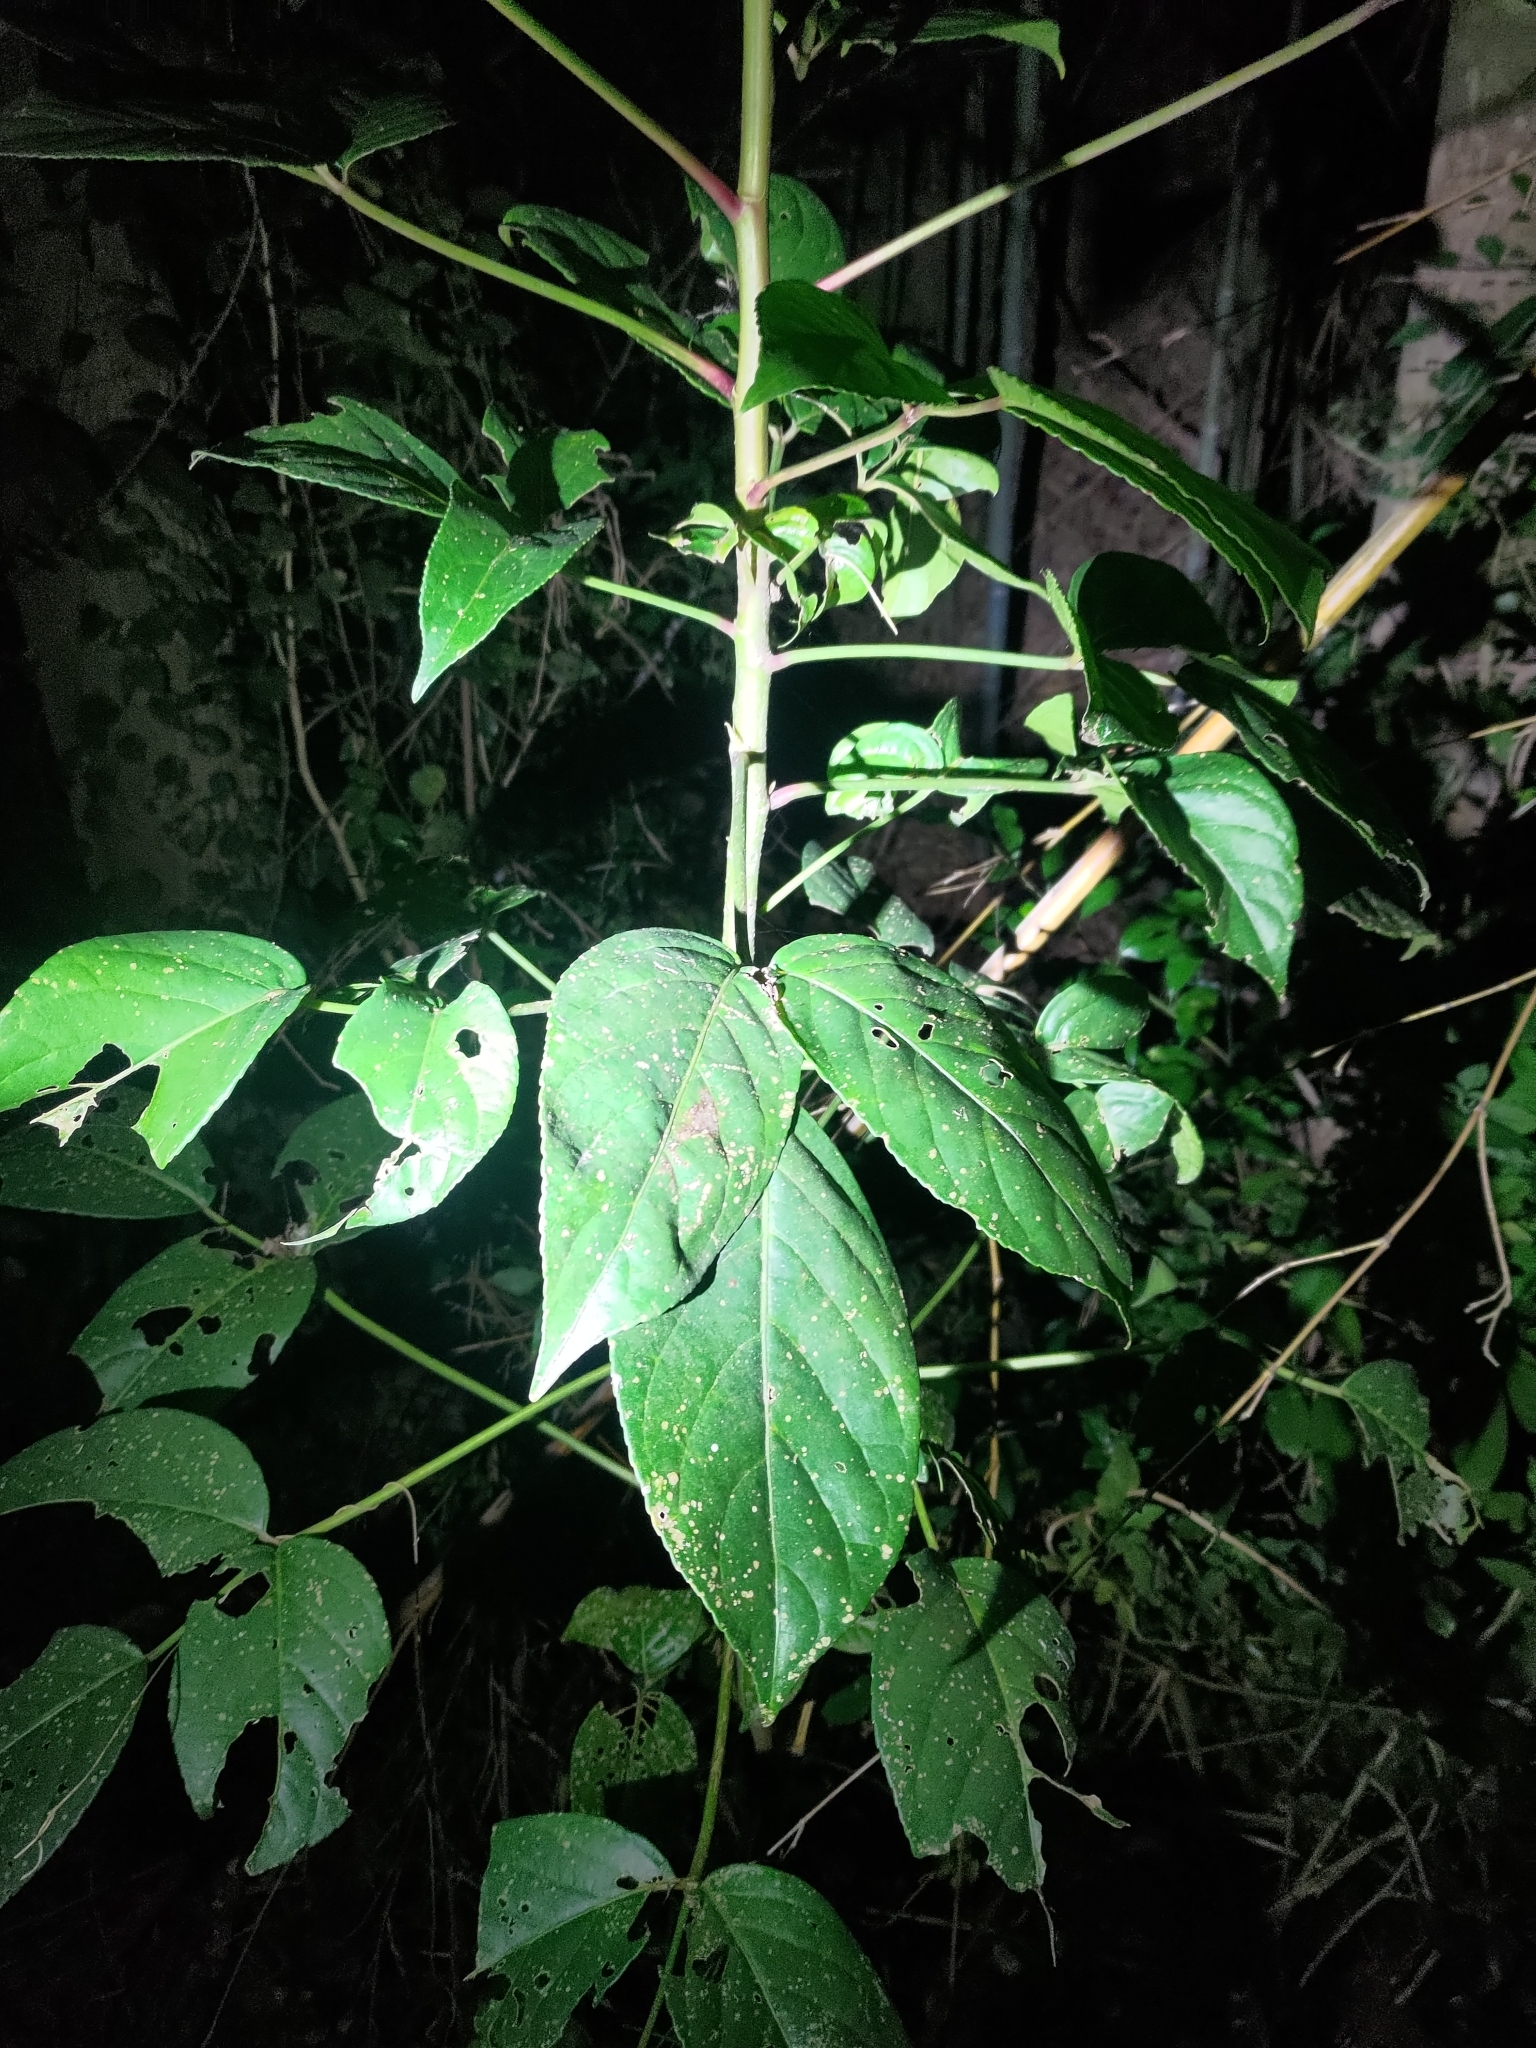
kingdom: Plantae
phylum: Tracheophyta
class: Magnoliopsida
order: Malpighiales
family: Phyllanthaceae
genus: Bischofia
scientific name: Bischofia javanica
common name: Javanese bishopwood
